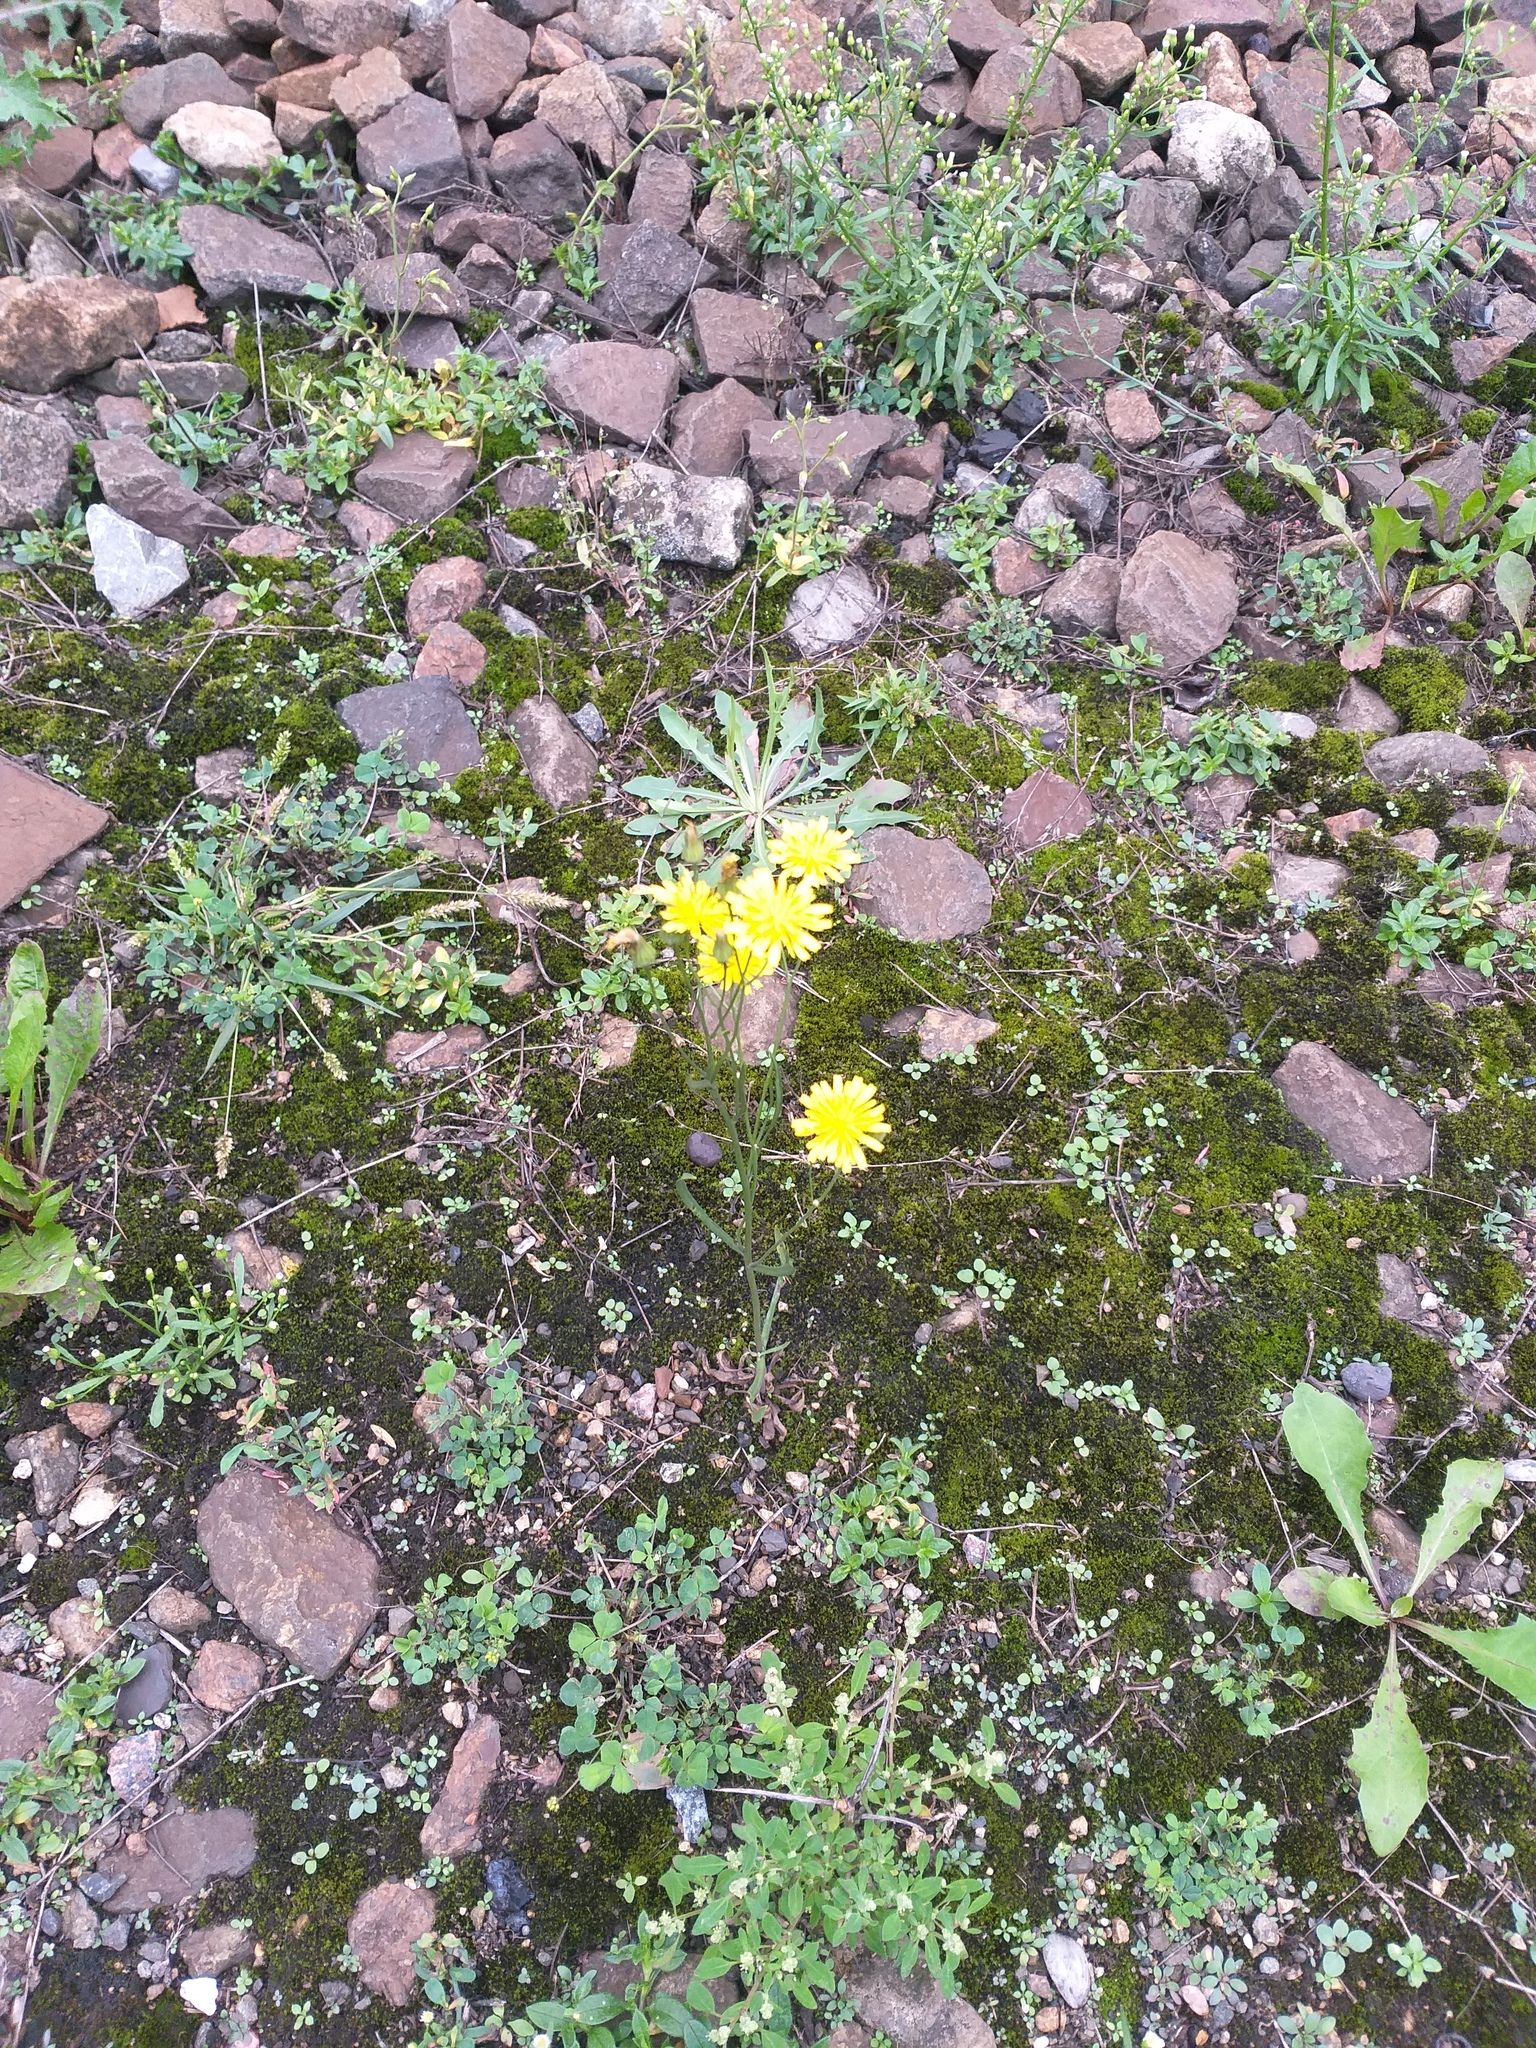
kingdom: Plantae
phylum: Tracheophyta
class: Magnoliopsida
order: Asterales
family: Asteraceae
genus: Crepis
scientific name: Crepis tectorum
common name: Narrow-leaved hawk's-beard
